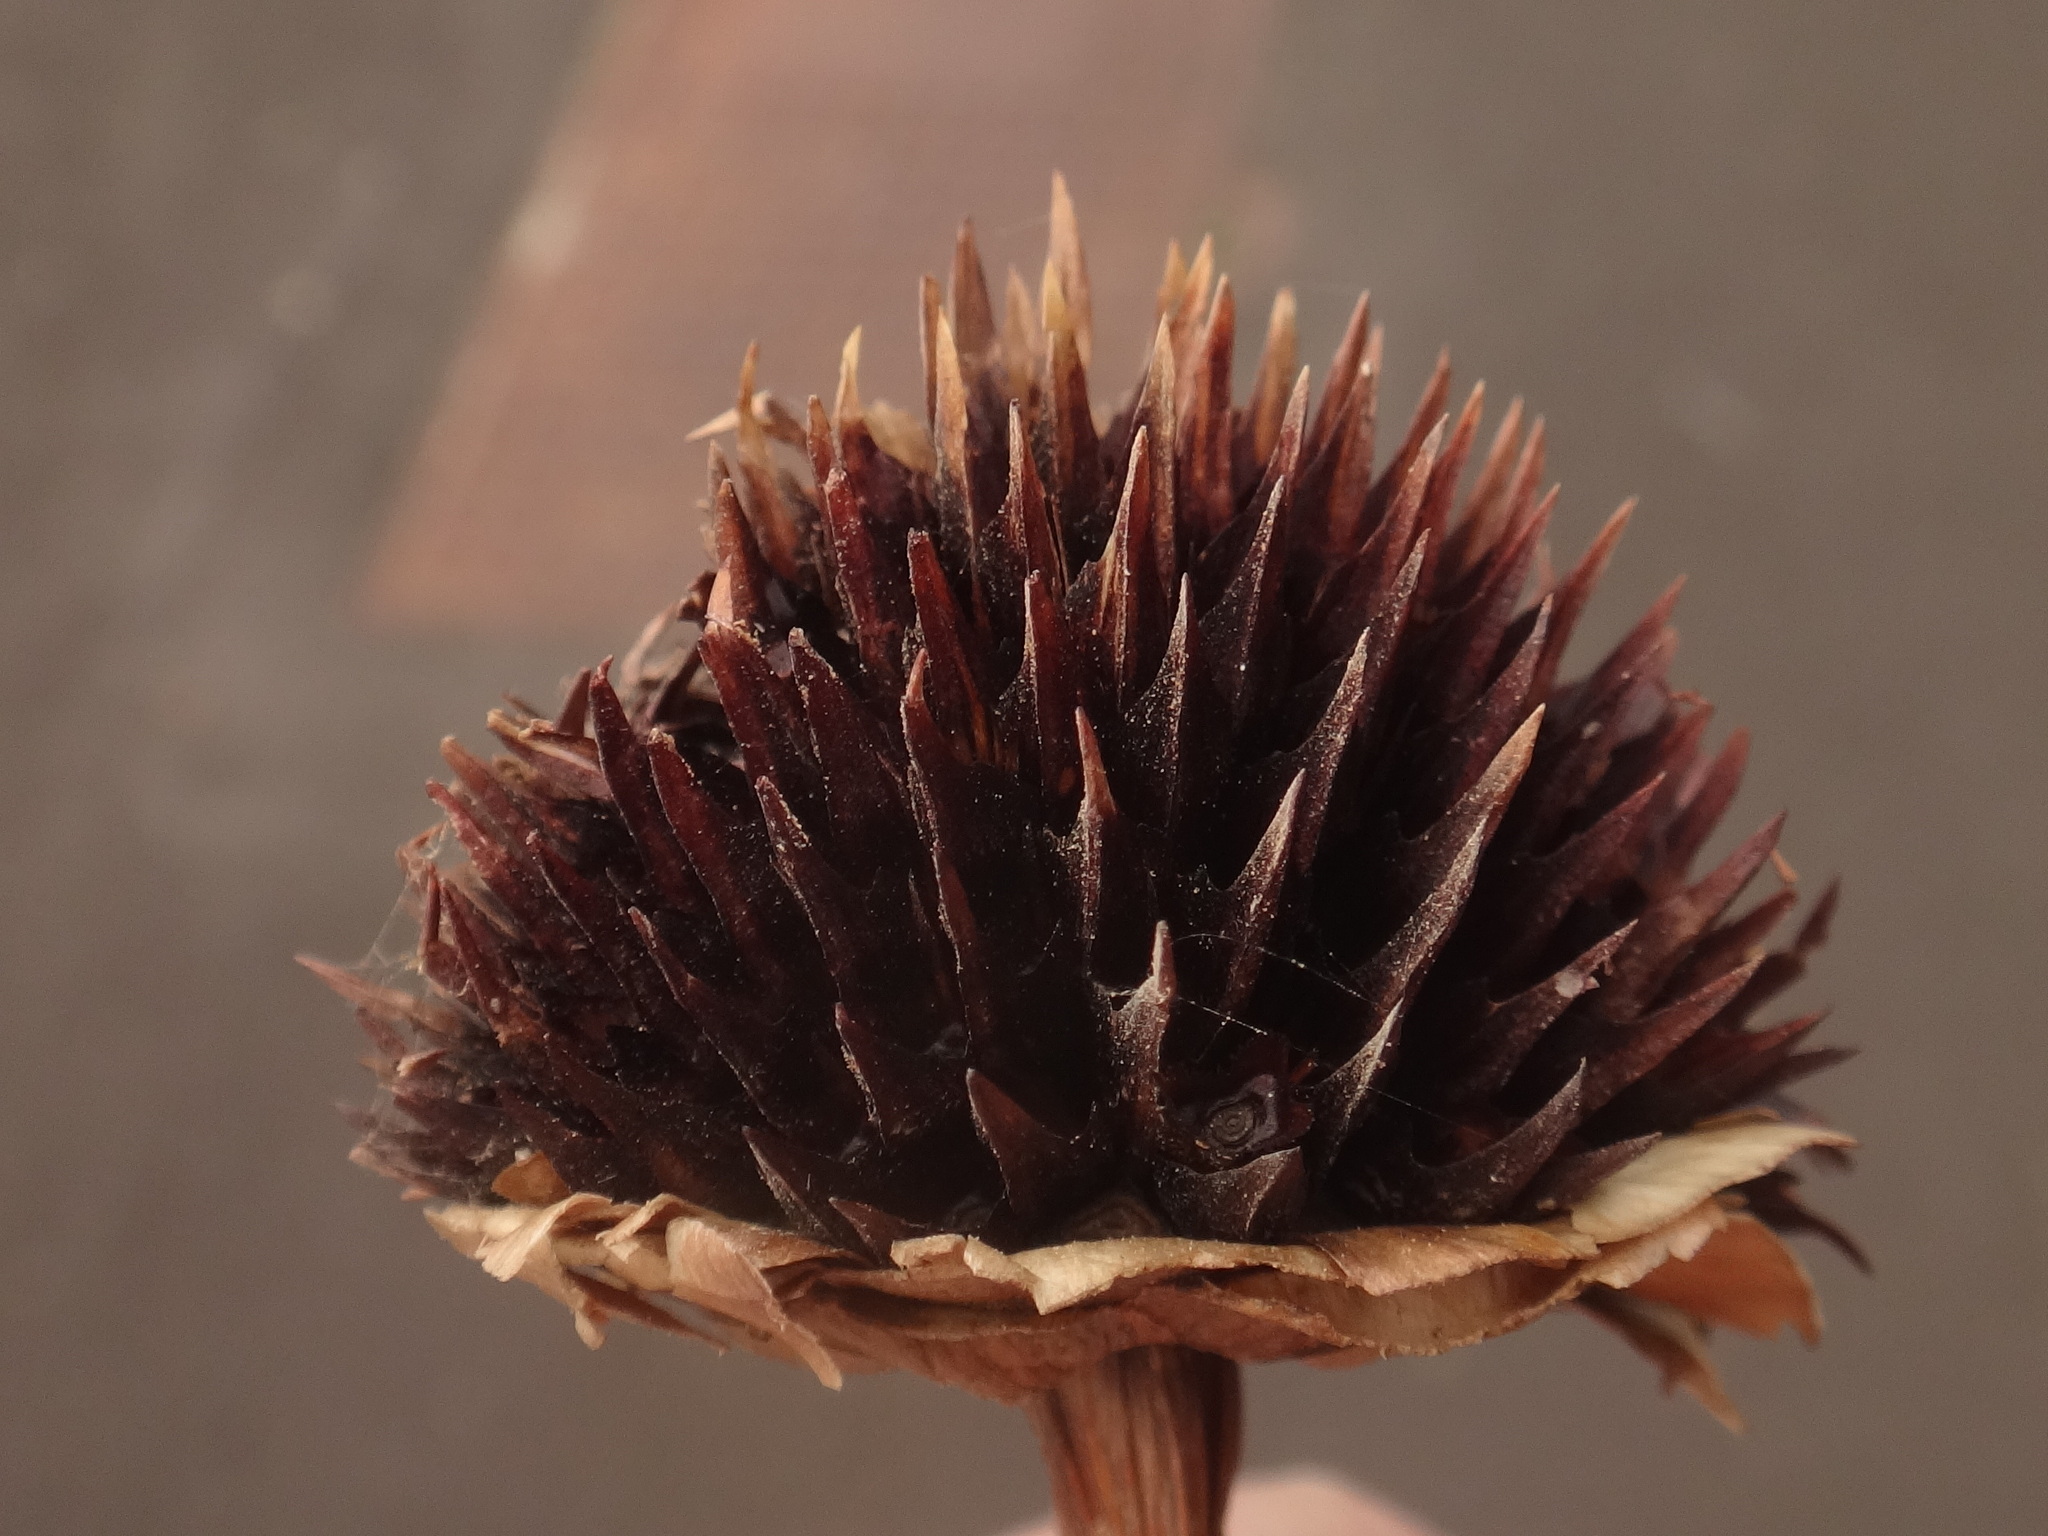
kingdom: Plantae
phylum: Tracheophyta
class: Magnoliopsida
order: Asterales
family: Asteraceae
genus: Tithonia
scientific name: Tithonia diversifolia
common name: Tree marigold
